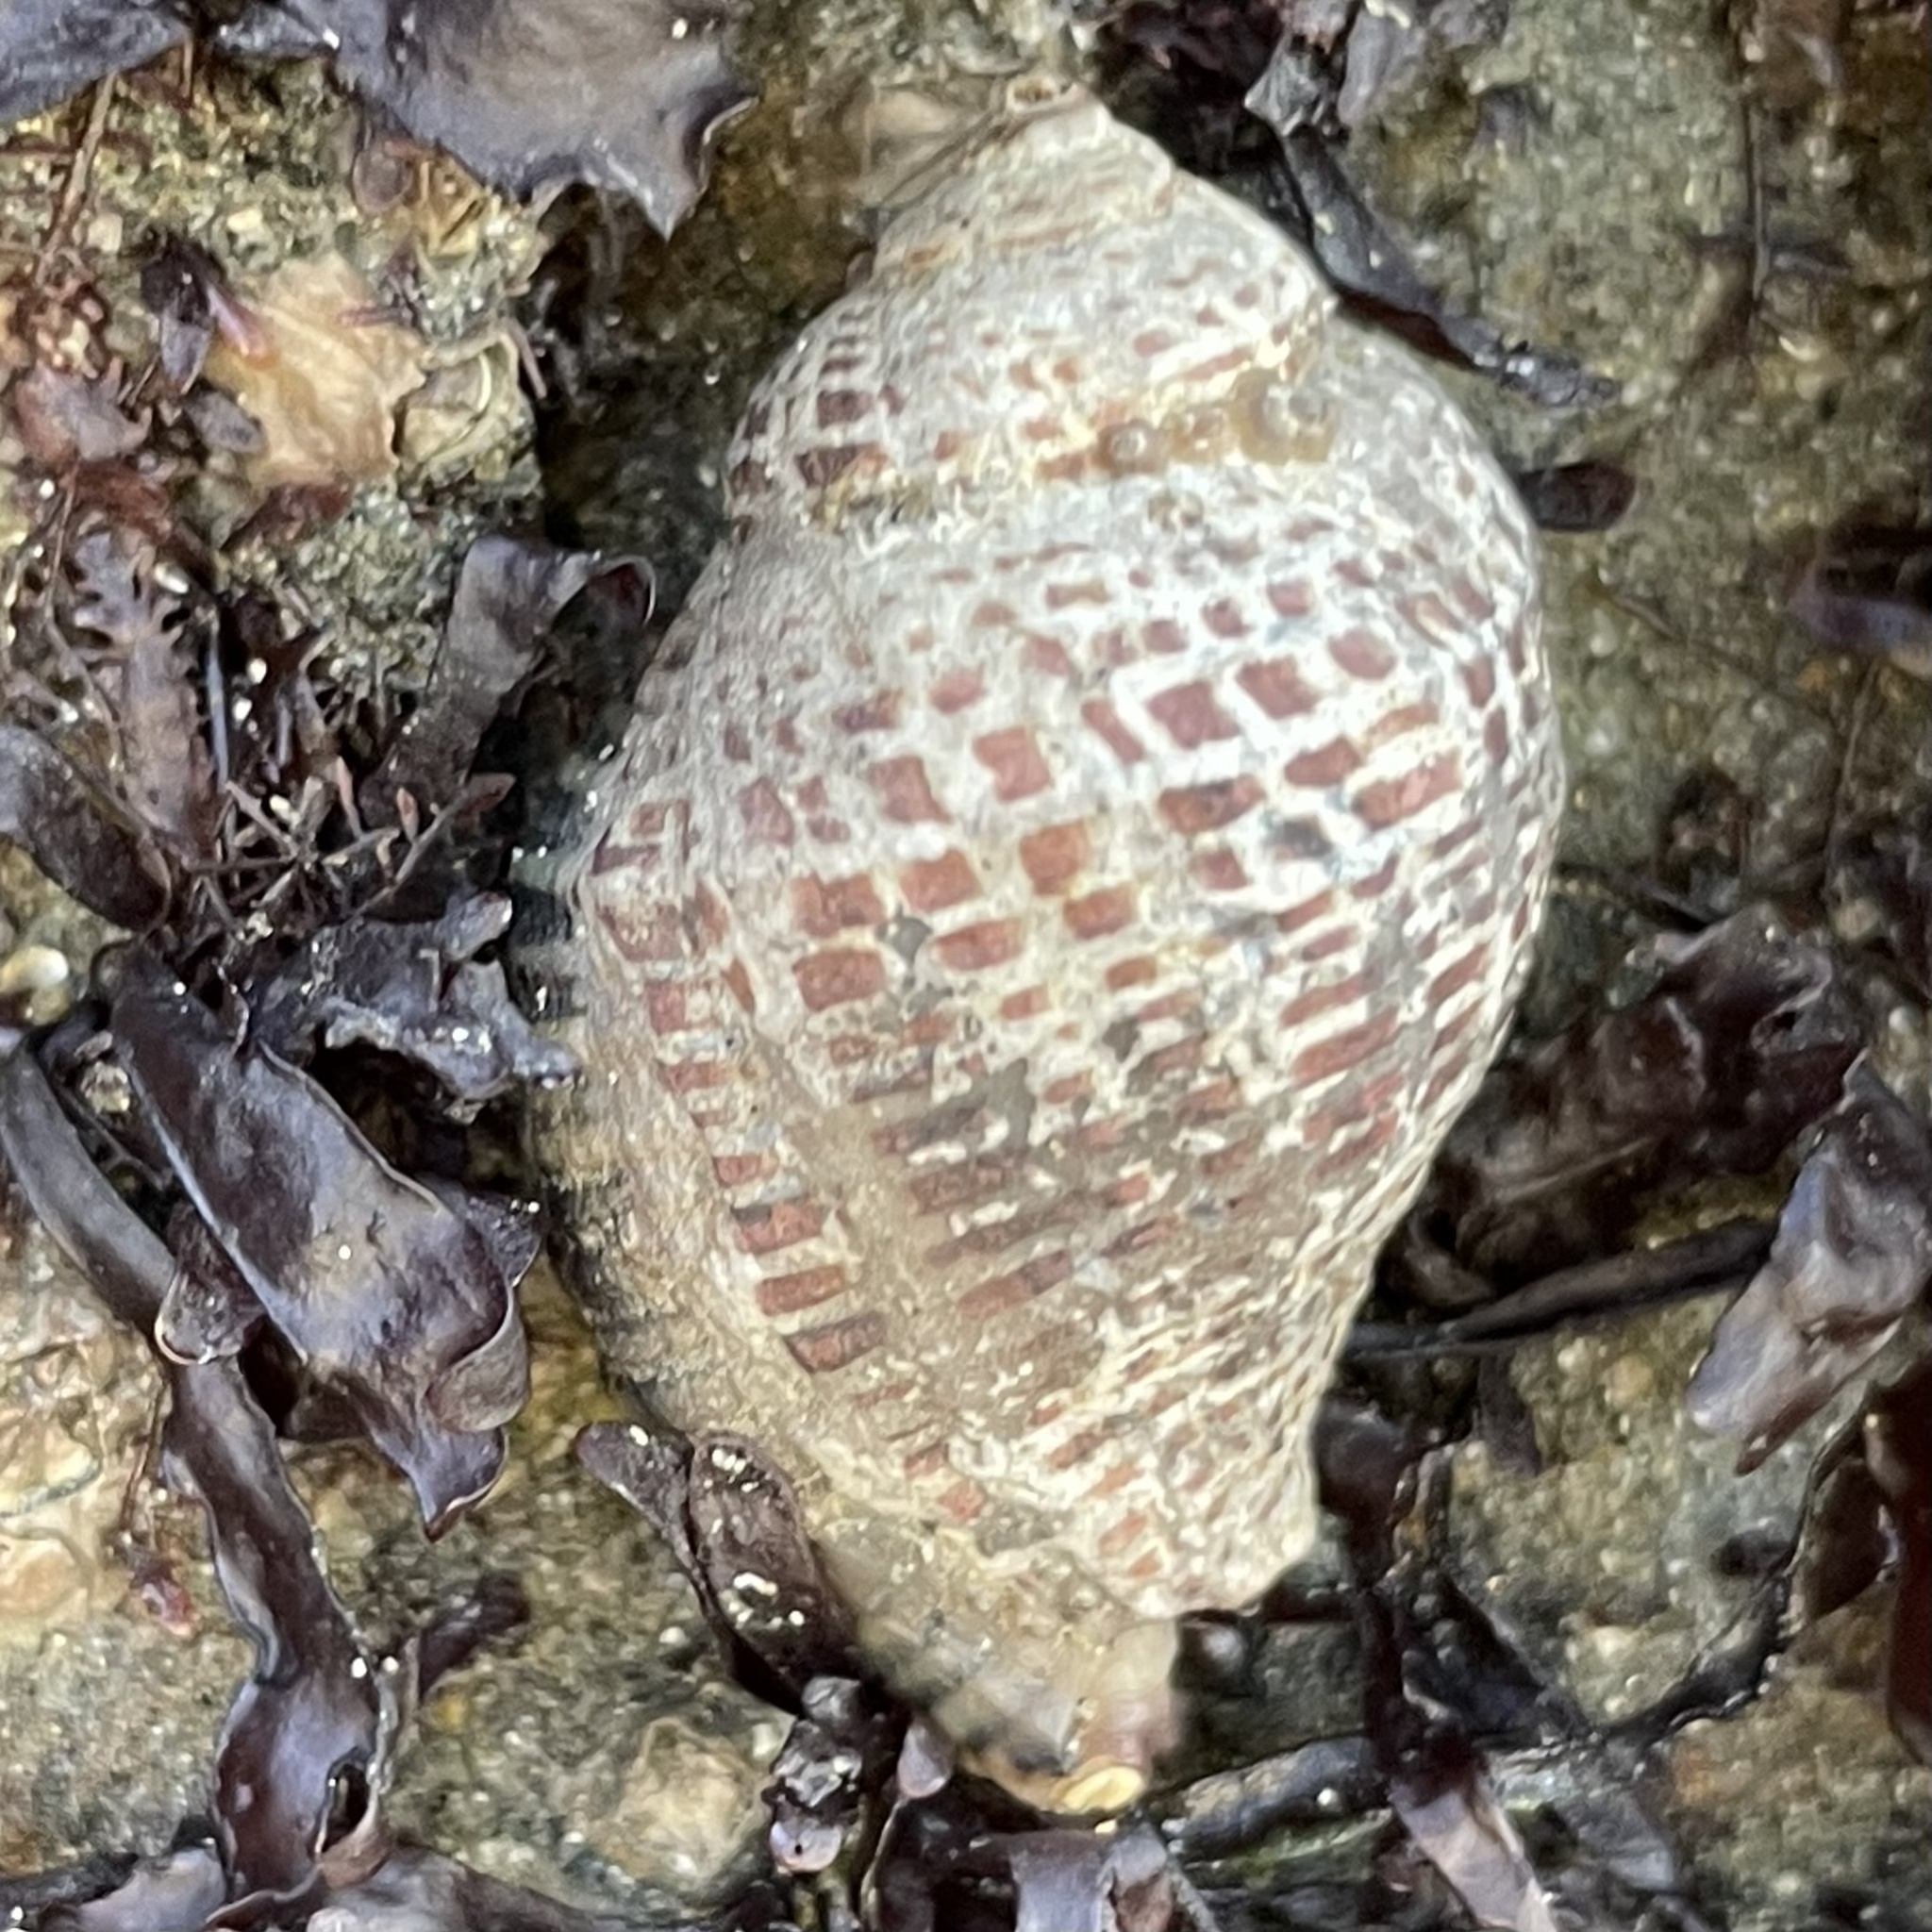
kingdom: Animalia
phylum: Mollusca
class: Gastropoda
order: Neogastropoda
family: Muricidae
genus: Acanthinucella
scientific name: Acanthinucella punctulata
